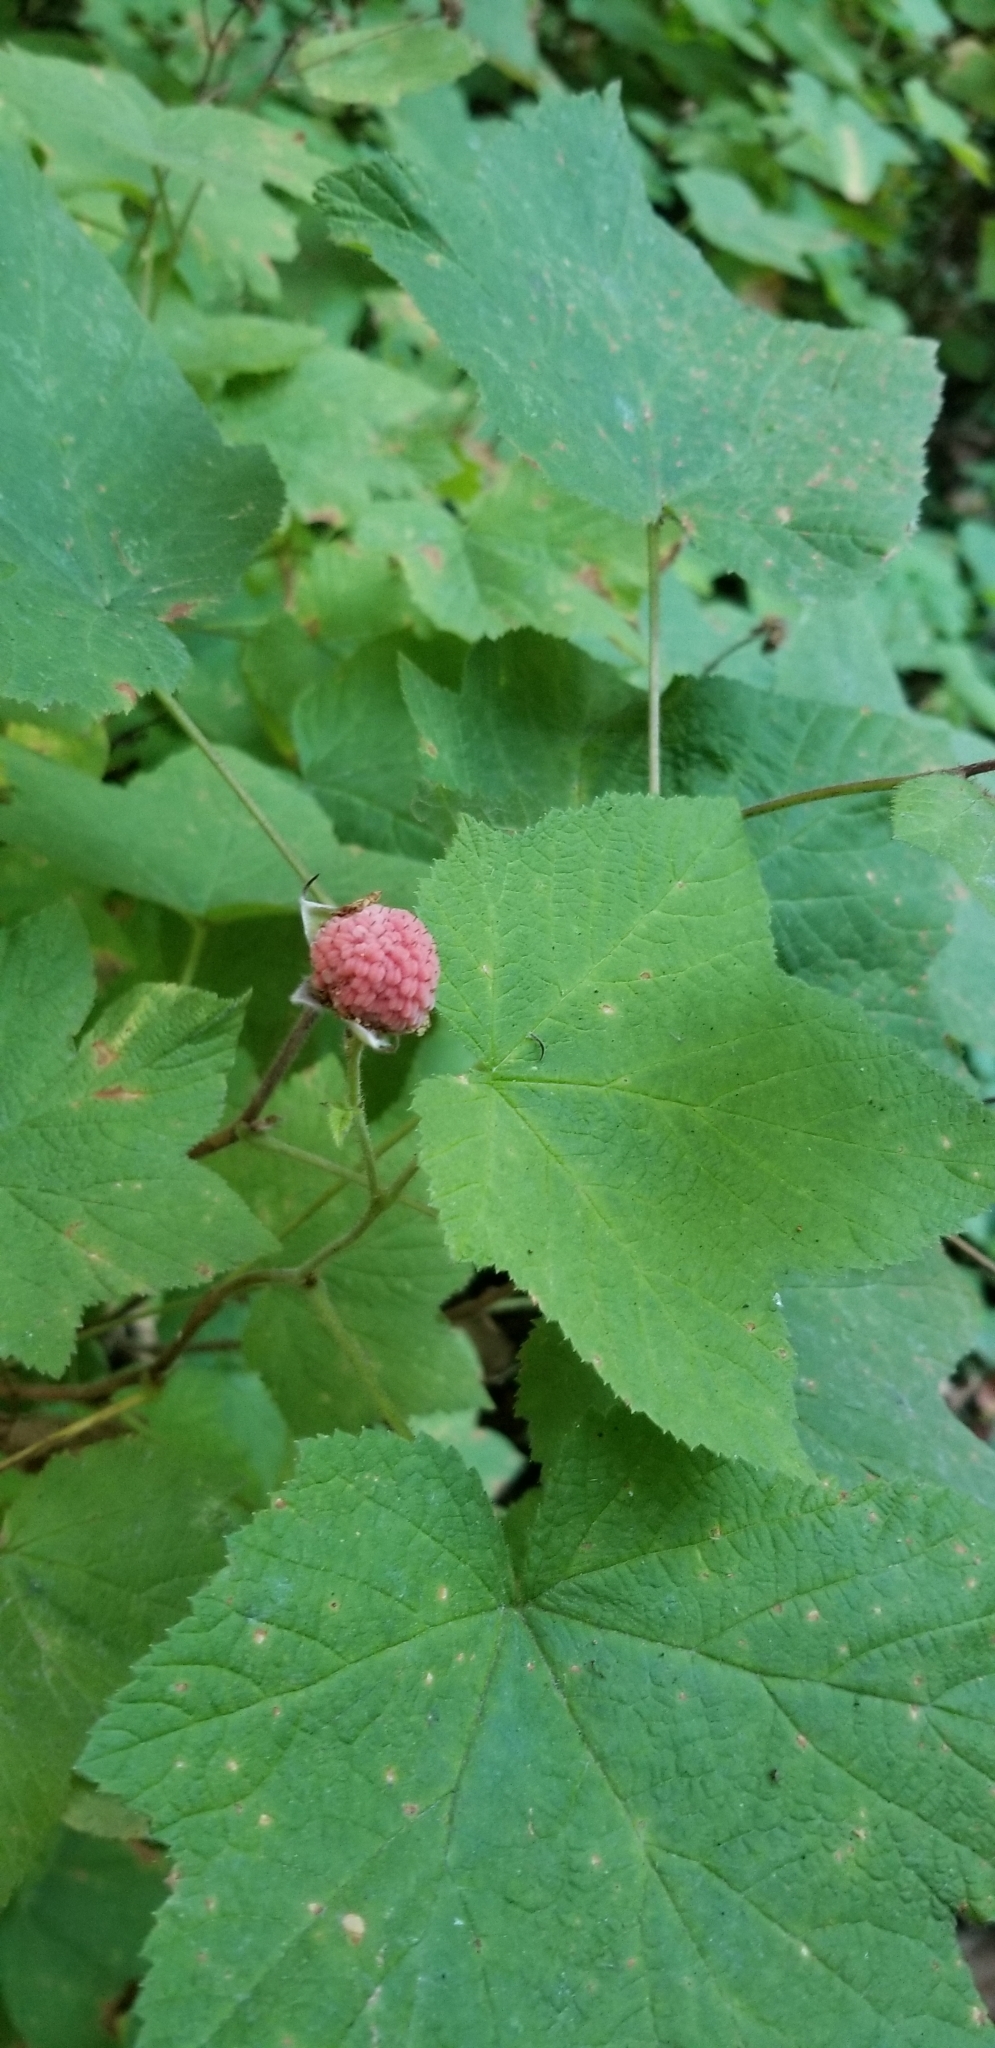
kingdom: Plantae
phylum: Tracheophyta
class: Magnoliopsida
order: Rosales
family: Rosaceae
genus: Rubus
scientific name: Rubus parviflorus
